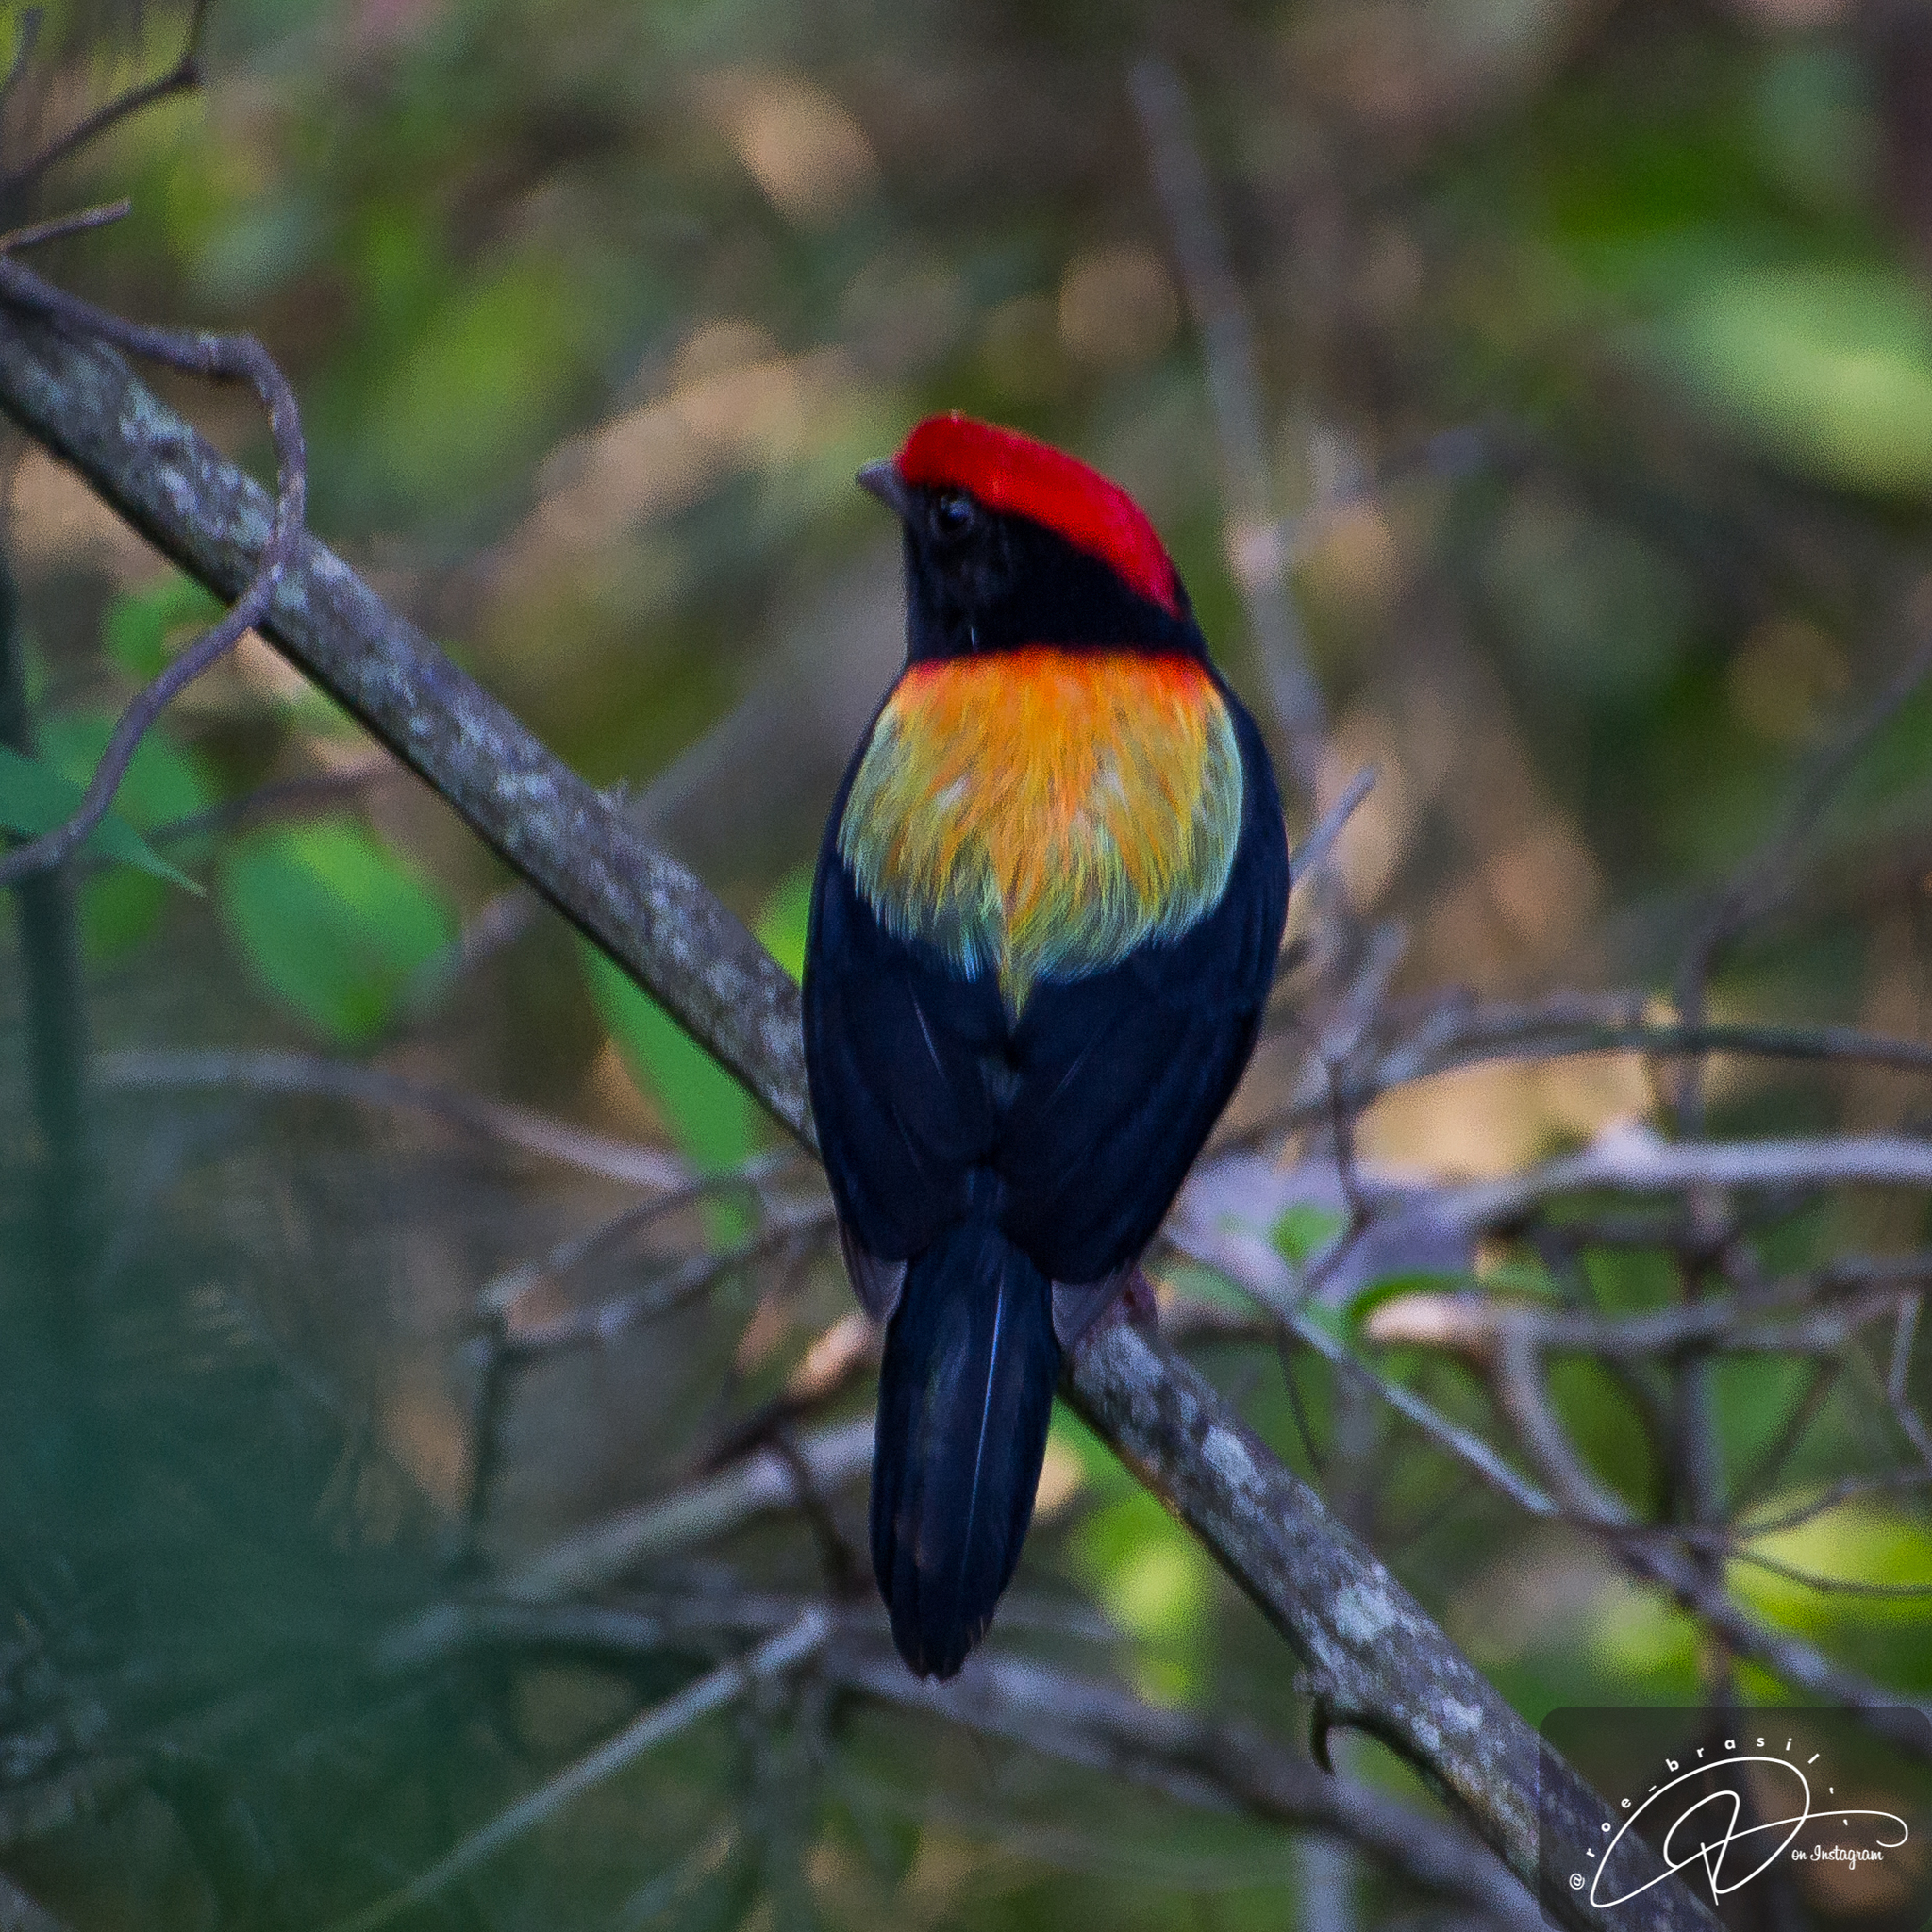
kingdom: Animalia
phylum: Chordata
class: Aves
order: Passeriformes
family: Pipridae
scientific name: Pipridae
